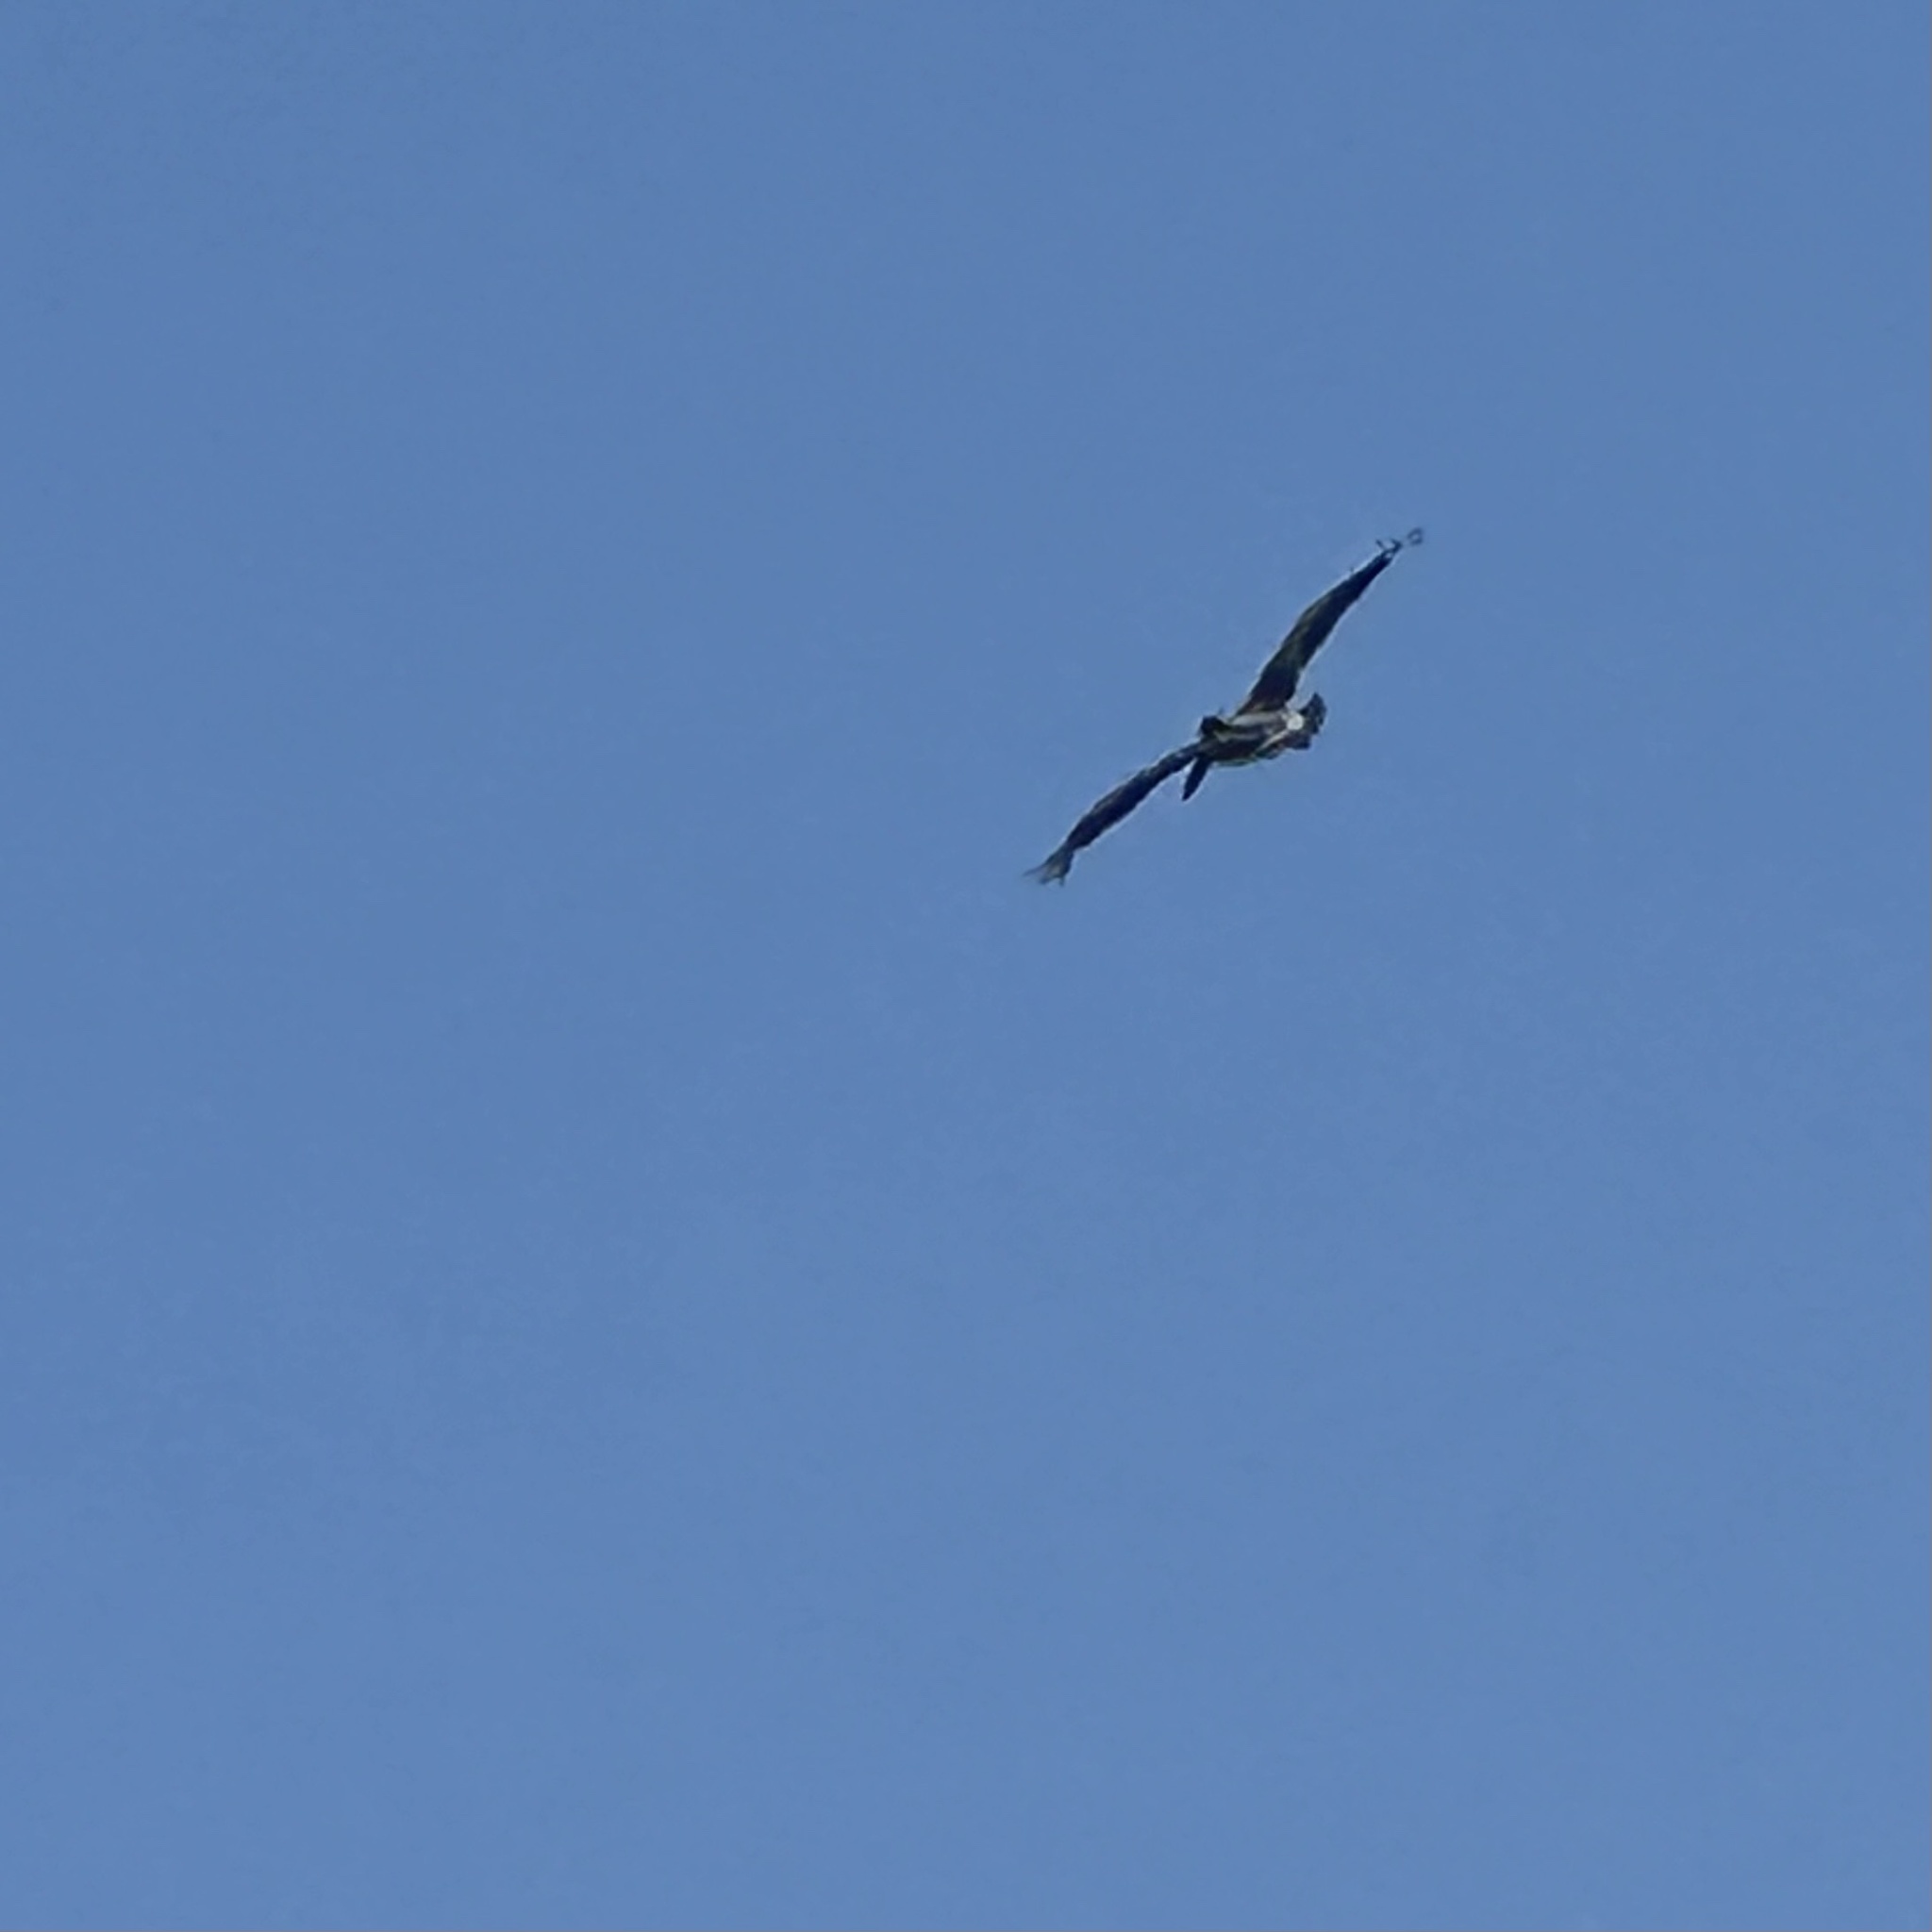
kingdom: Animalia
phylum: Chordata
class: Aves
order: Pelecaniformes
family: Pelecanidae
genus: Pelecanus
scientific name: Pelecanus occidentalis
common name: Brown pelican
